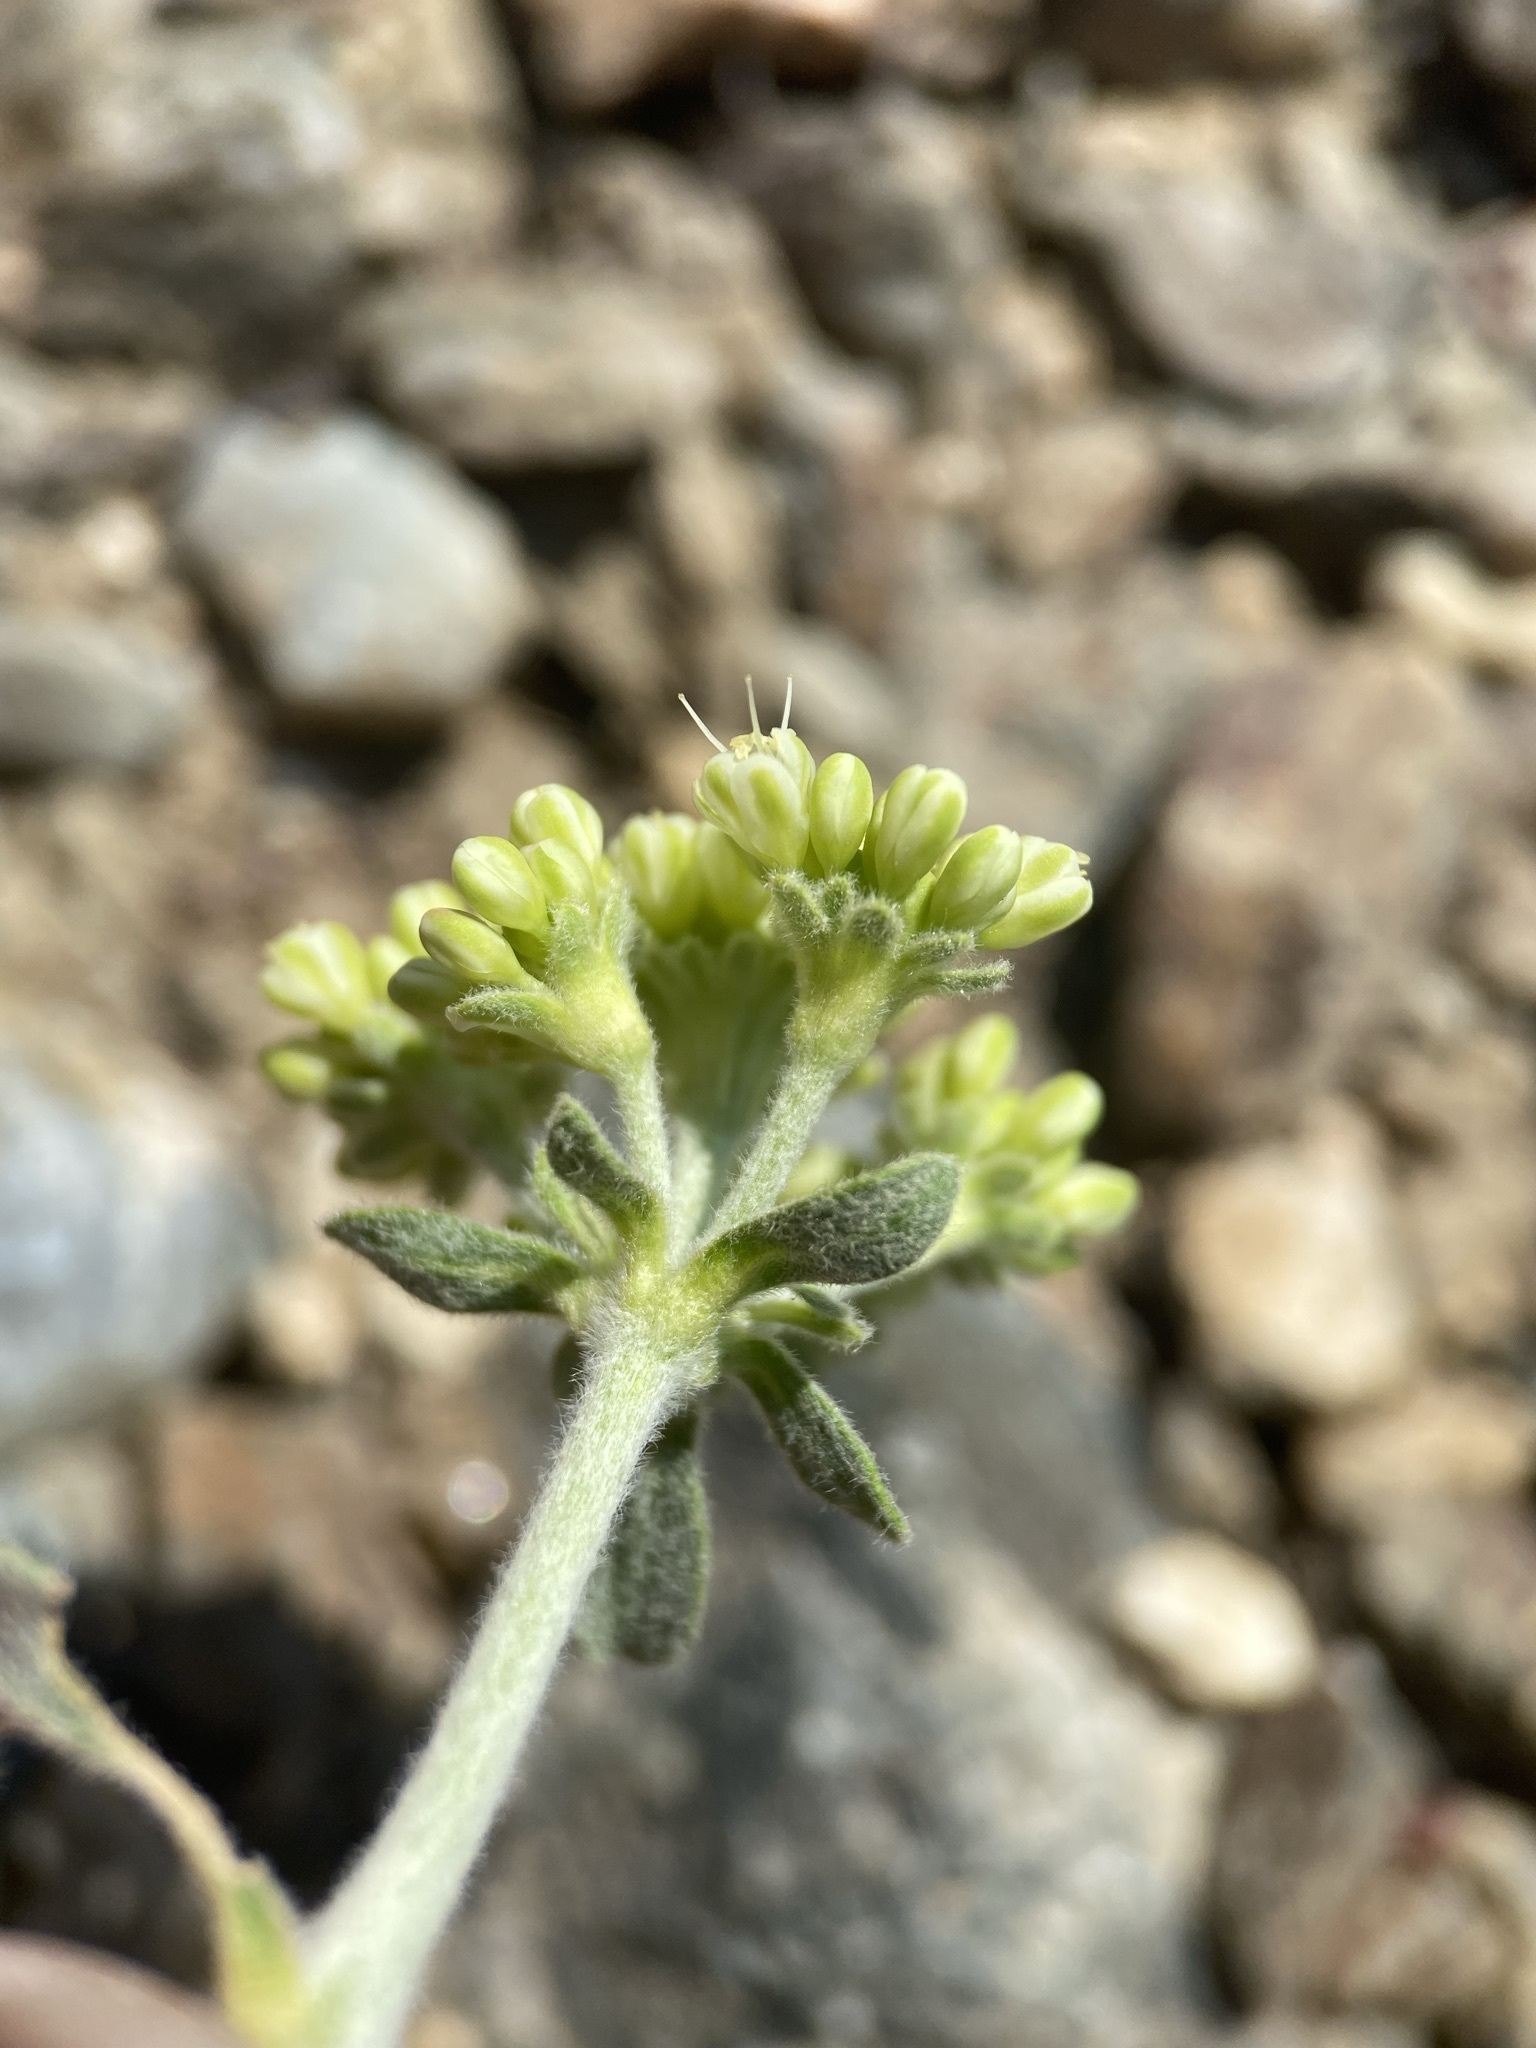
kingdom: Plantae
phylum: Tracheophyta
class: Magnoliopsida
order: Caryophyllales
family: Polygonaceae
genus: Eriogonum
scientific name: Eriogonum umbellatum
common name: Sulfur-buckwheat
